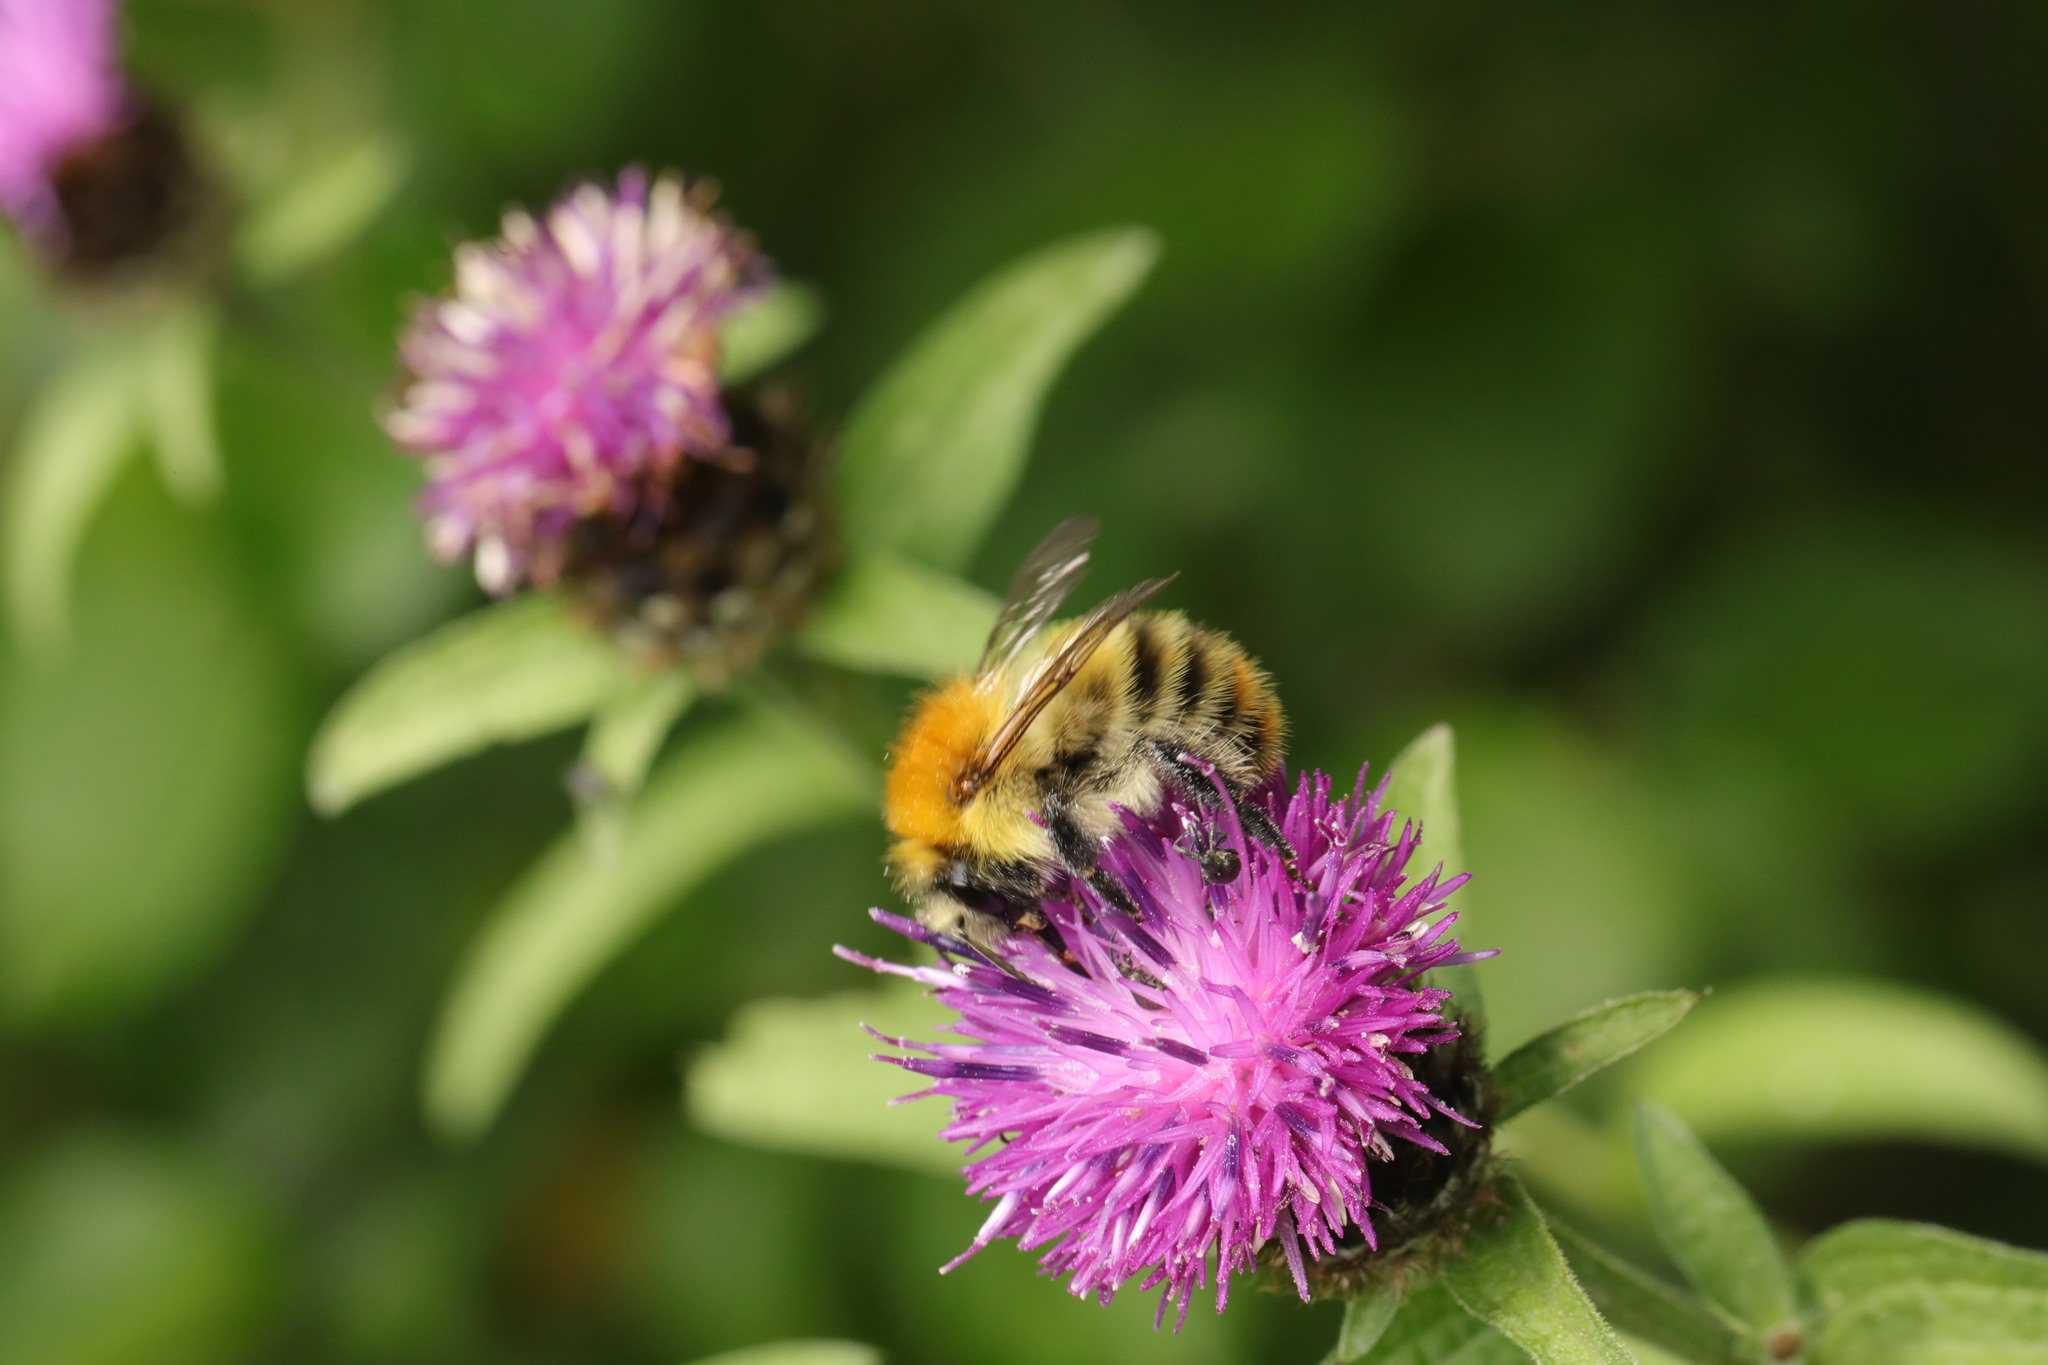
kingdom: Animalia
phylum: Arthropoda
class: Insecta
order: Hymenoptera
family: Apidae
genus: Bombus
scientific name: Bombus pascuorum
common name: Common carder bee
